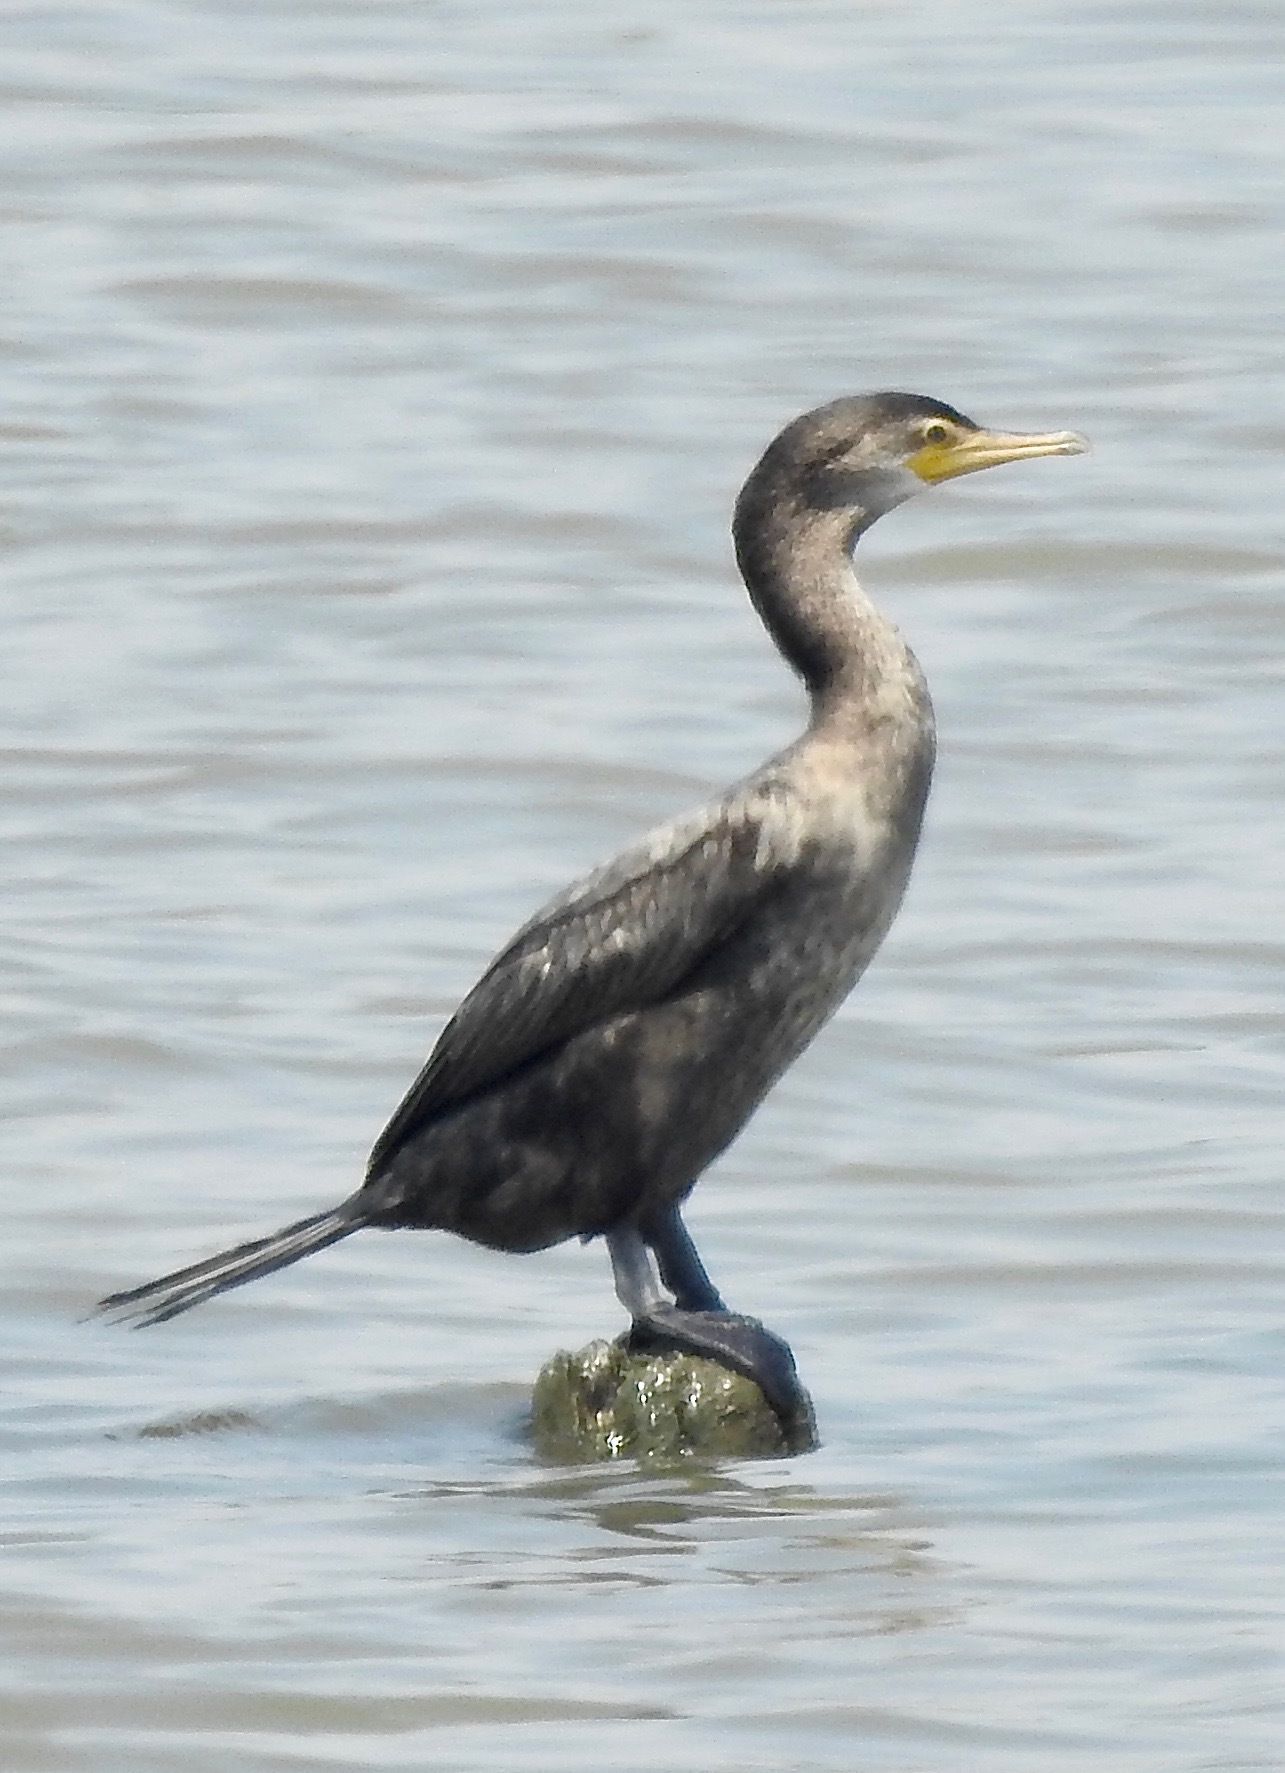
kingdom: Animalia
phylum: Chordata
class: Aves
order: Suliformes
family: Phalacrocoracidae
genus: Phalacrocorax
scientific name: Phalacrocorax brasilianus
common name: Neotropic cormorant
